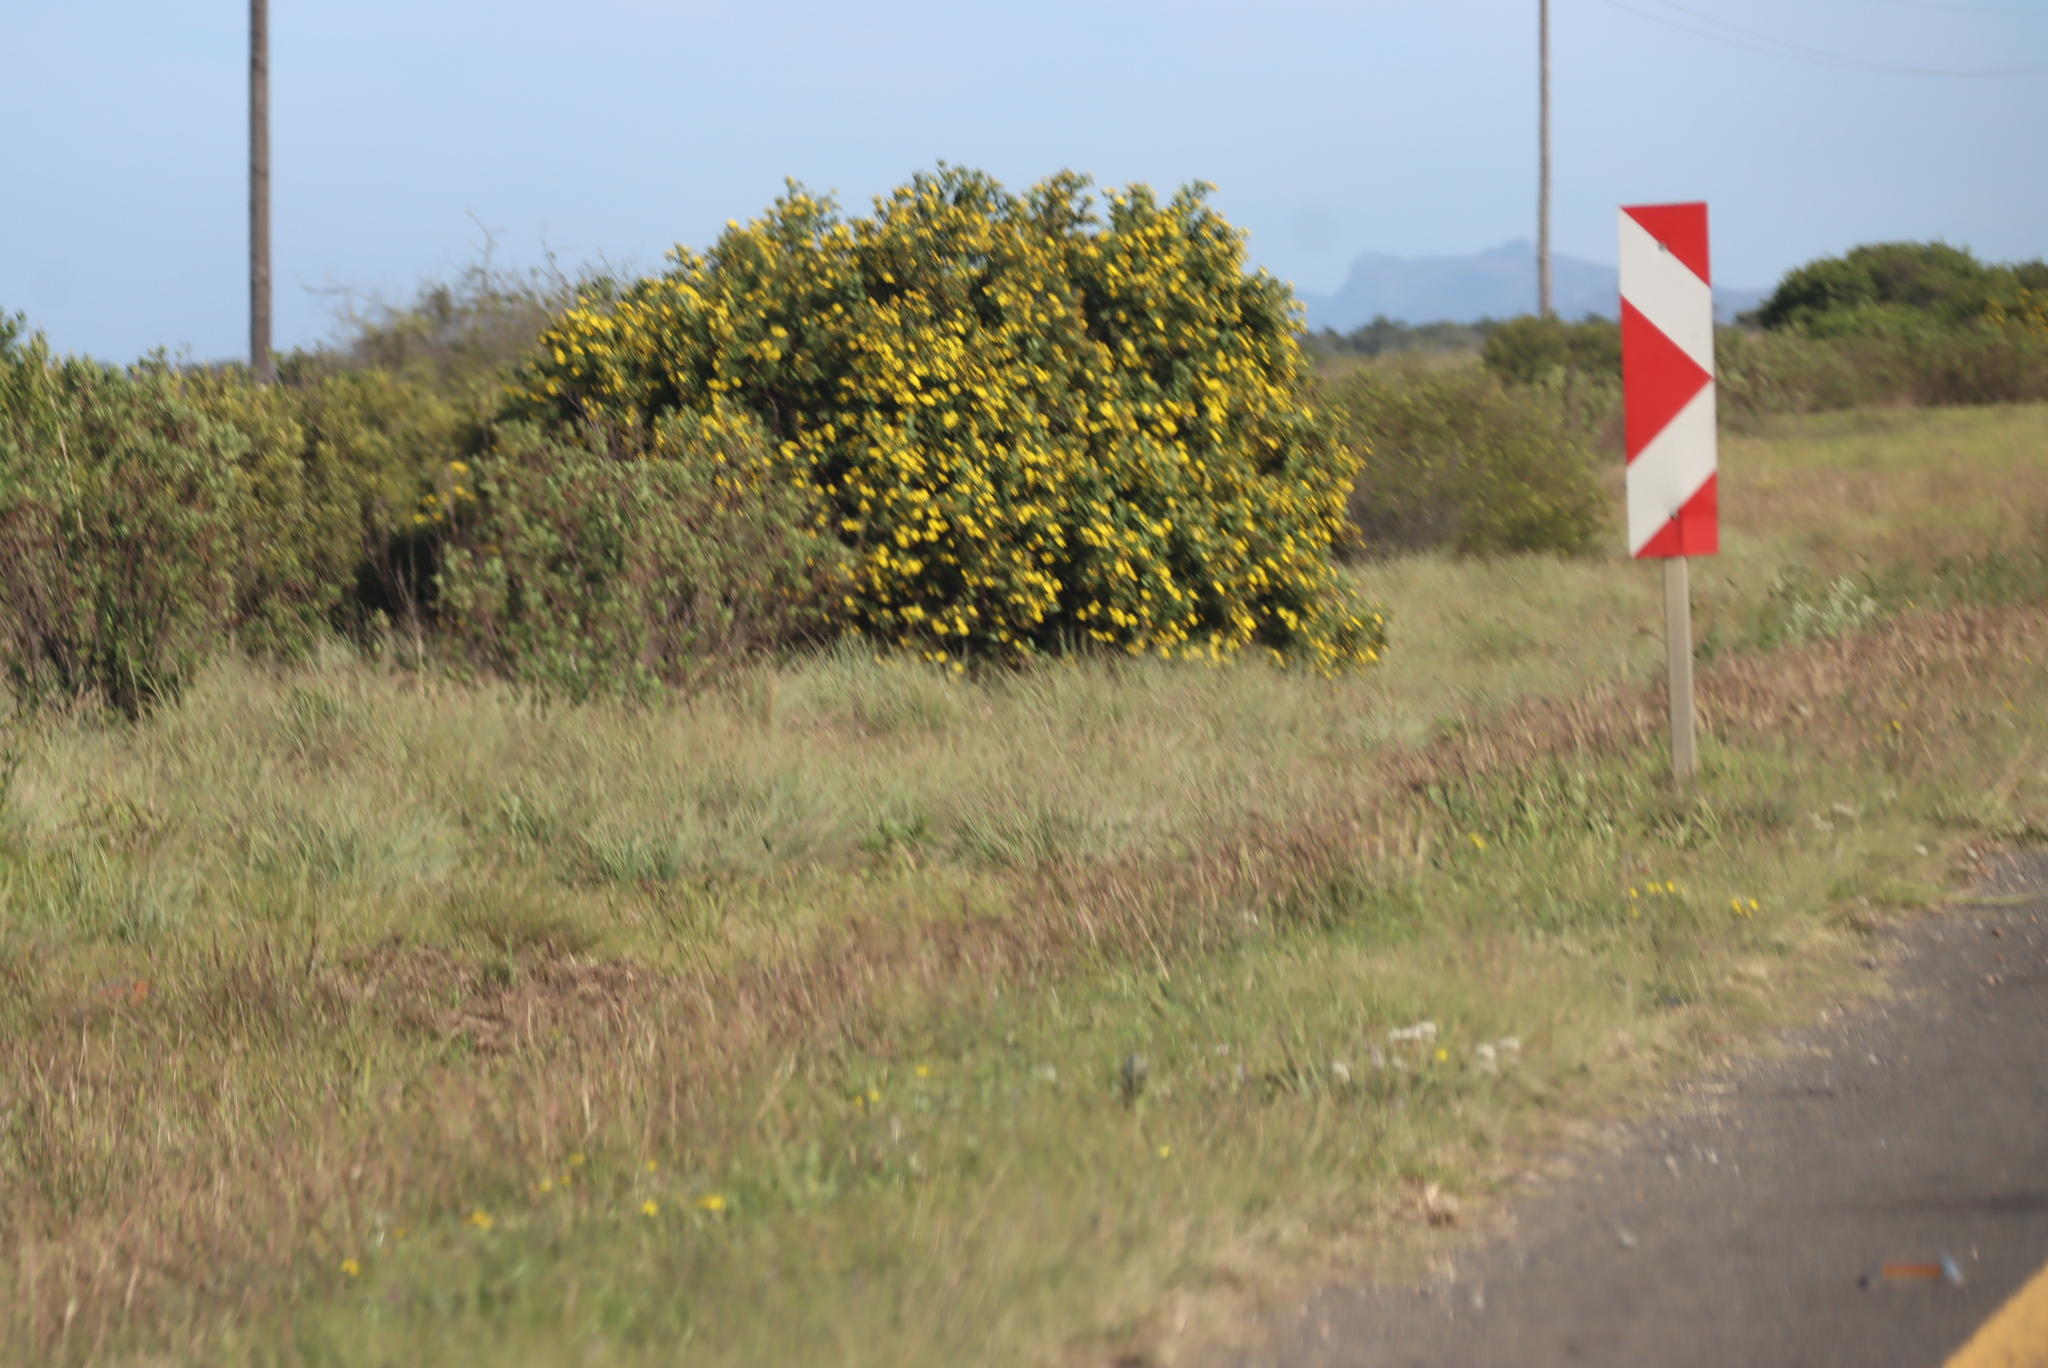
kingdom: Plantae
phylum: Tracheophyta
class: Magnoliopsida
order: Asterales
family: Asteraceae
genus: Osteospermum
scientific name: Osteospermum moniliferum
